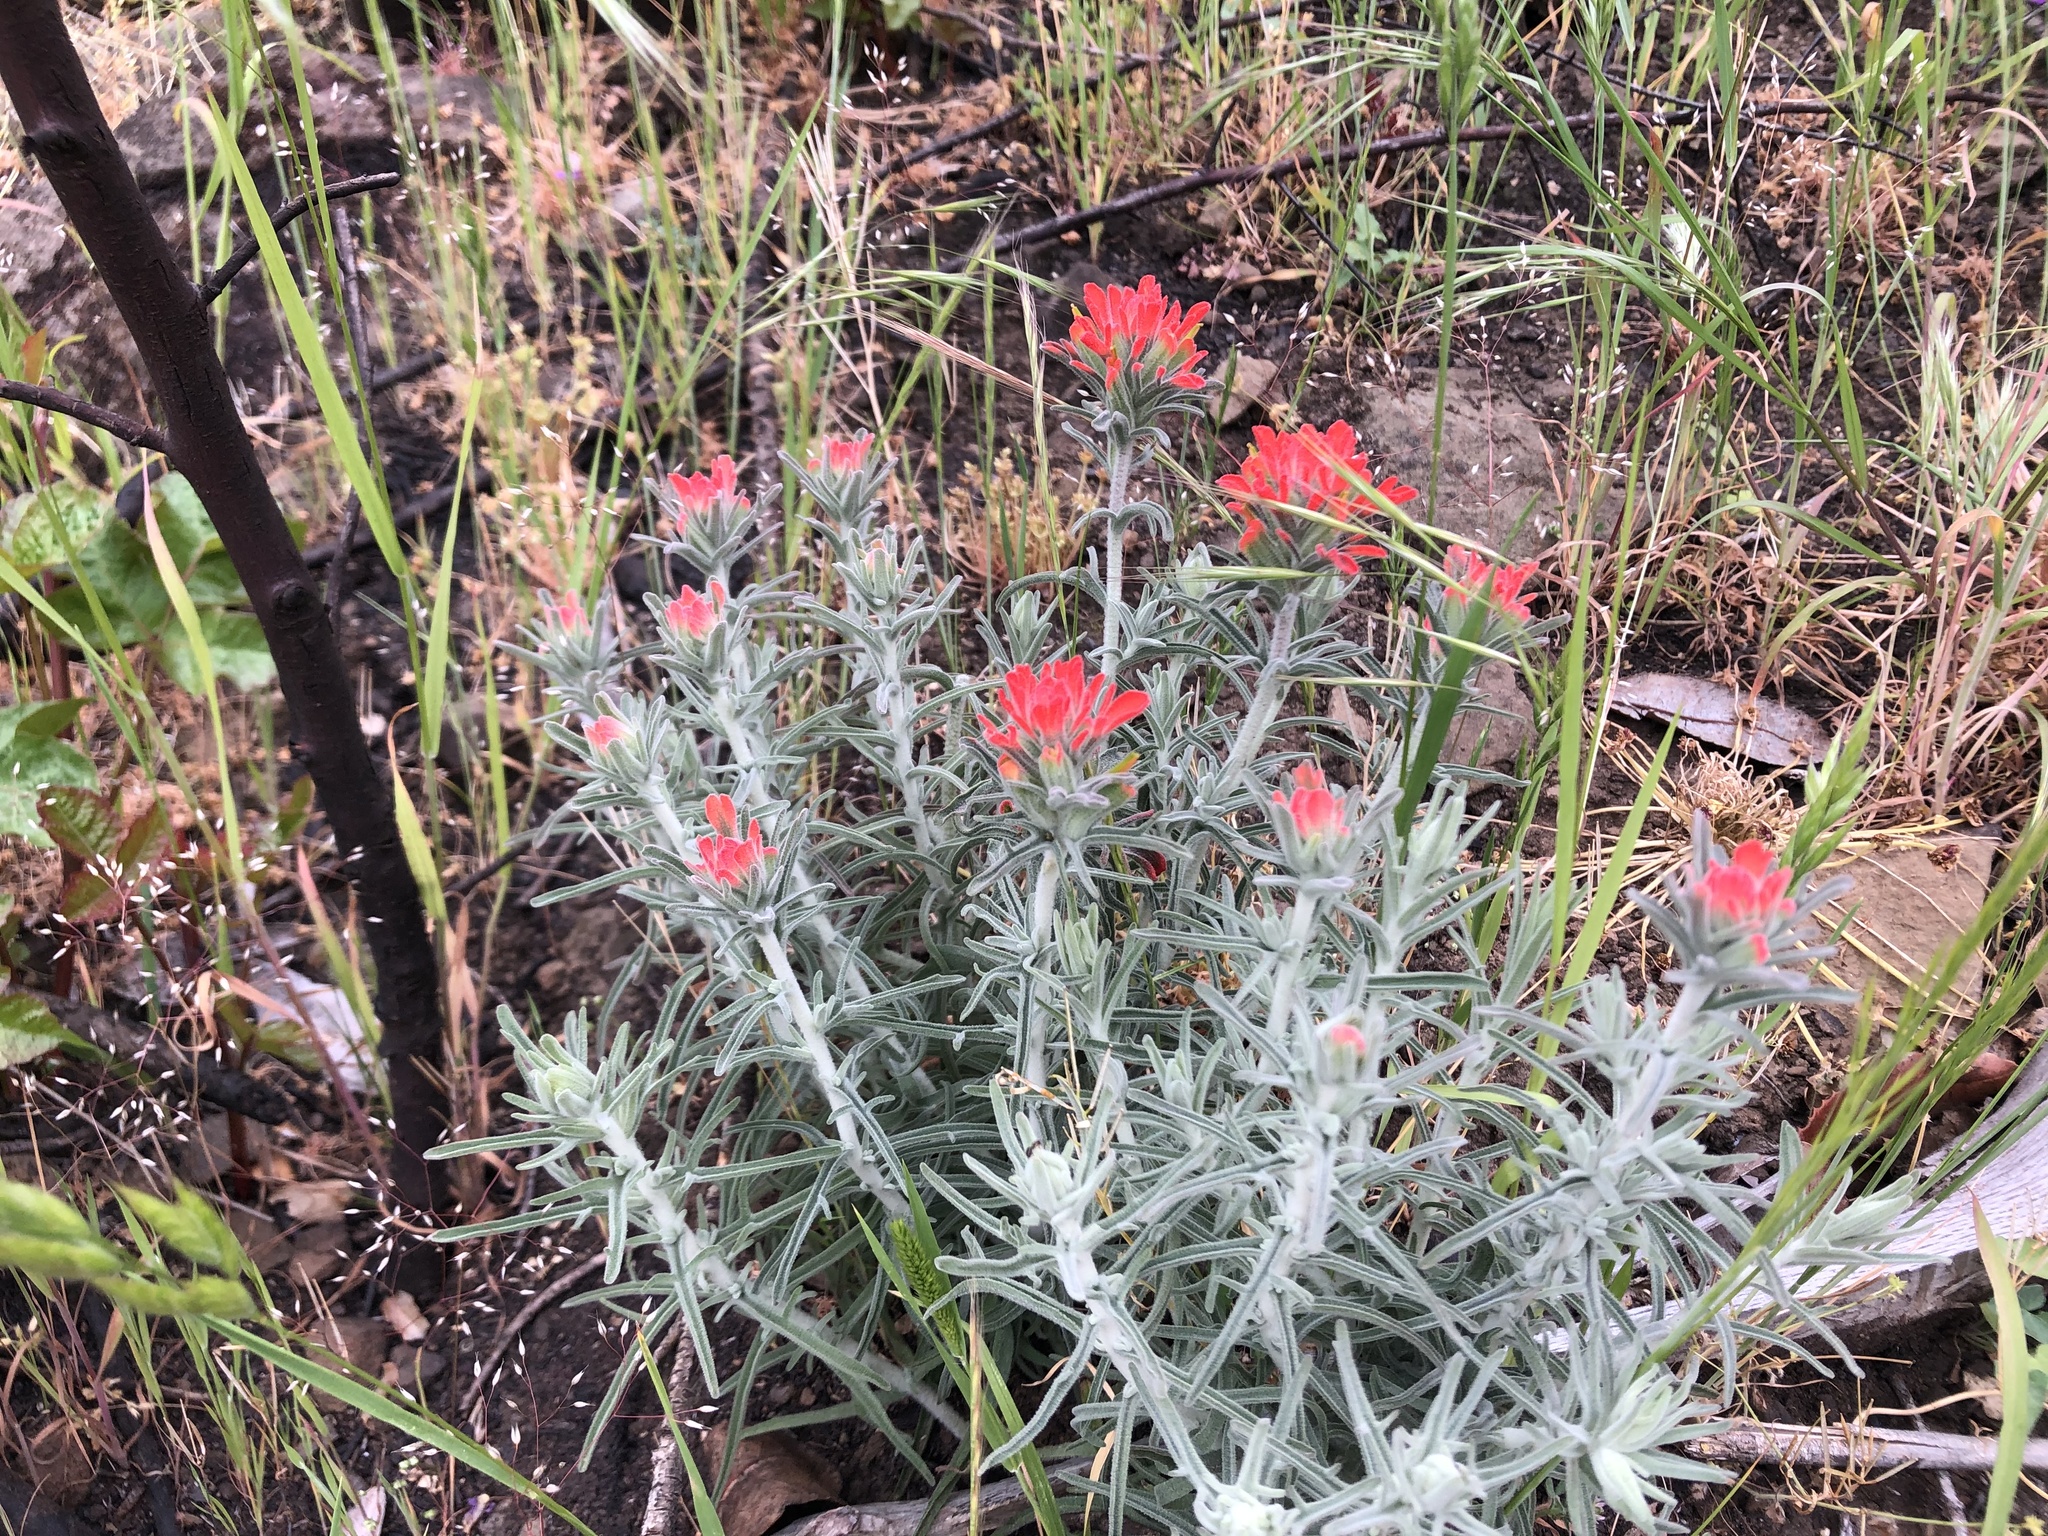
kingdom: Plantae
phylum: Tracheophyta
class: Magnoliopsida
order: Lamiales
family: Orobanchaceae
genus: Castilleja
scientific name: Castilleja foliolosa
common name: Woolly indian paintbrush
